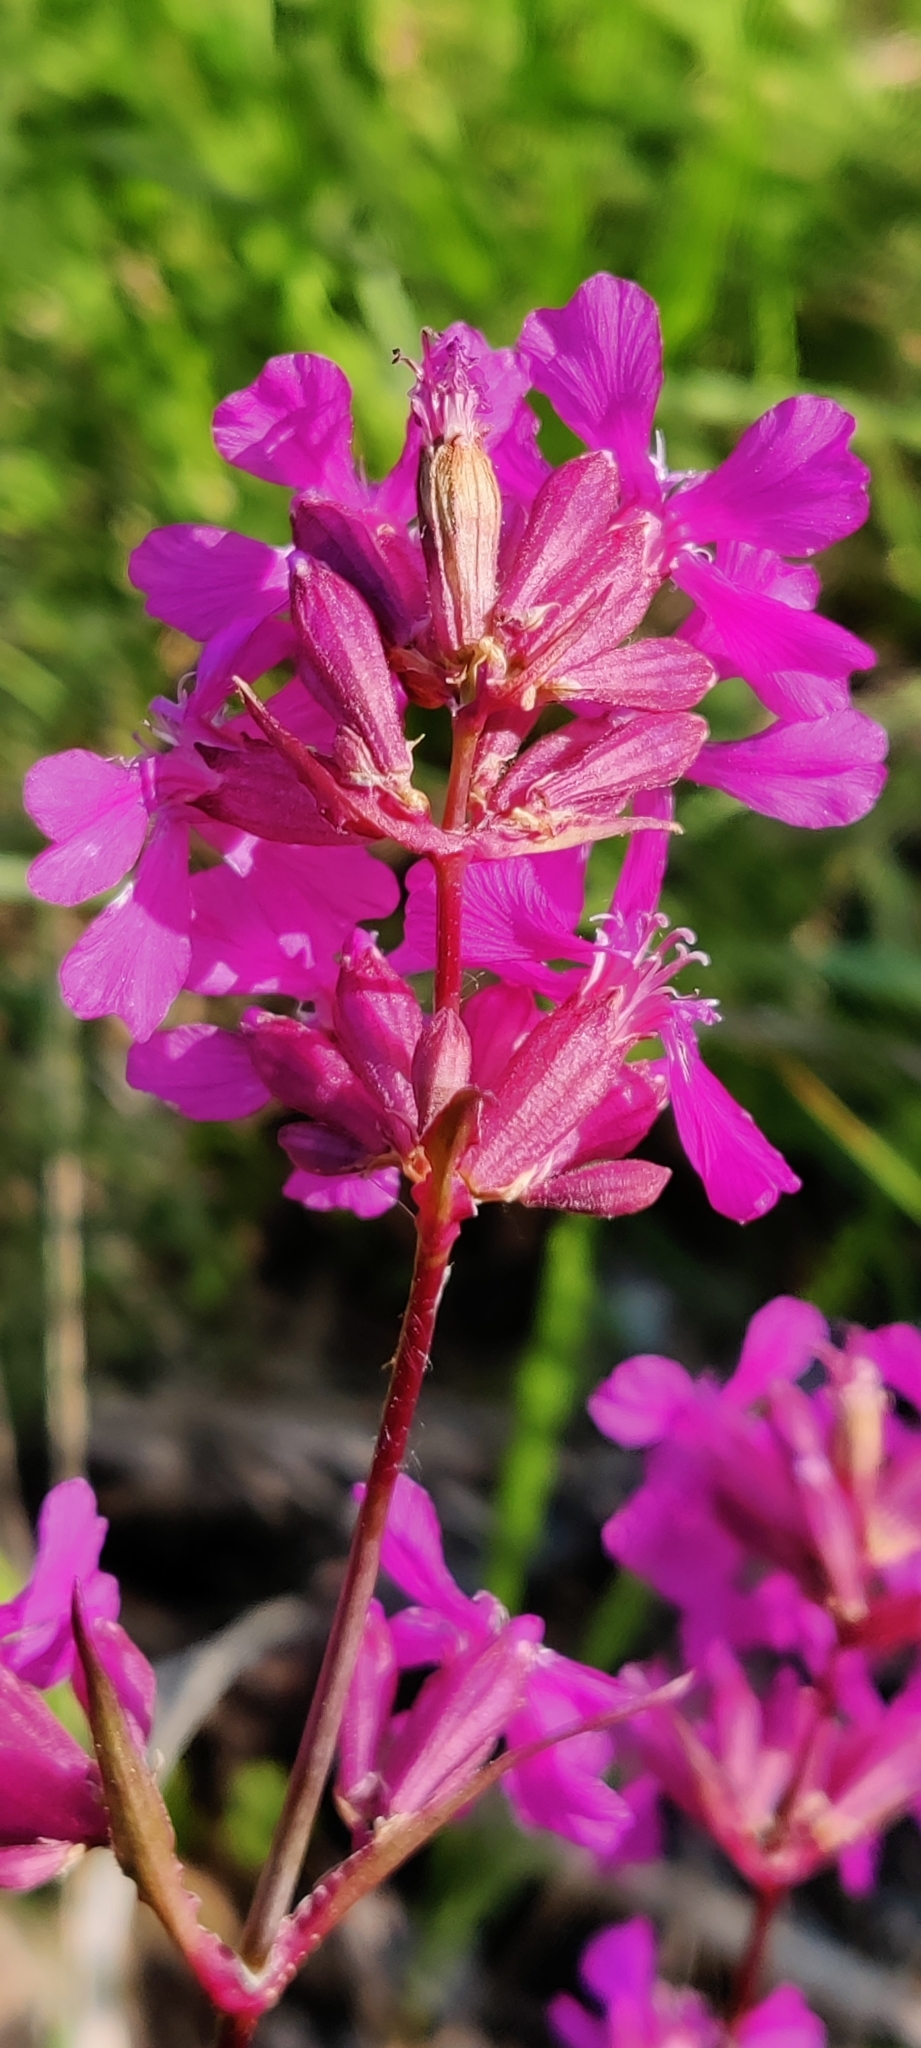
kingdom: Plantae
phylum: Tracheophyta
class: Magnoliopsida
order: Caryophyllales
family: Caryophyllaceae
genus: Viscaria
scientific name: Viscaria vulgaris
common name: Clammy campion
